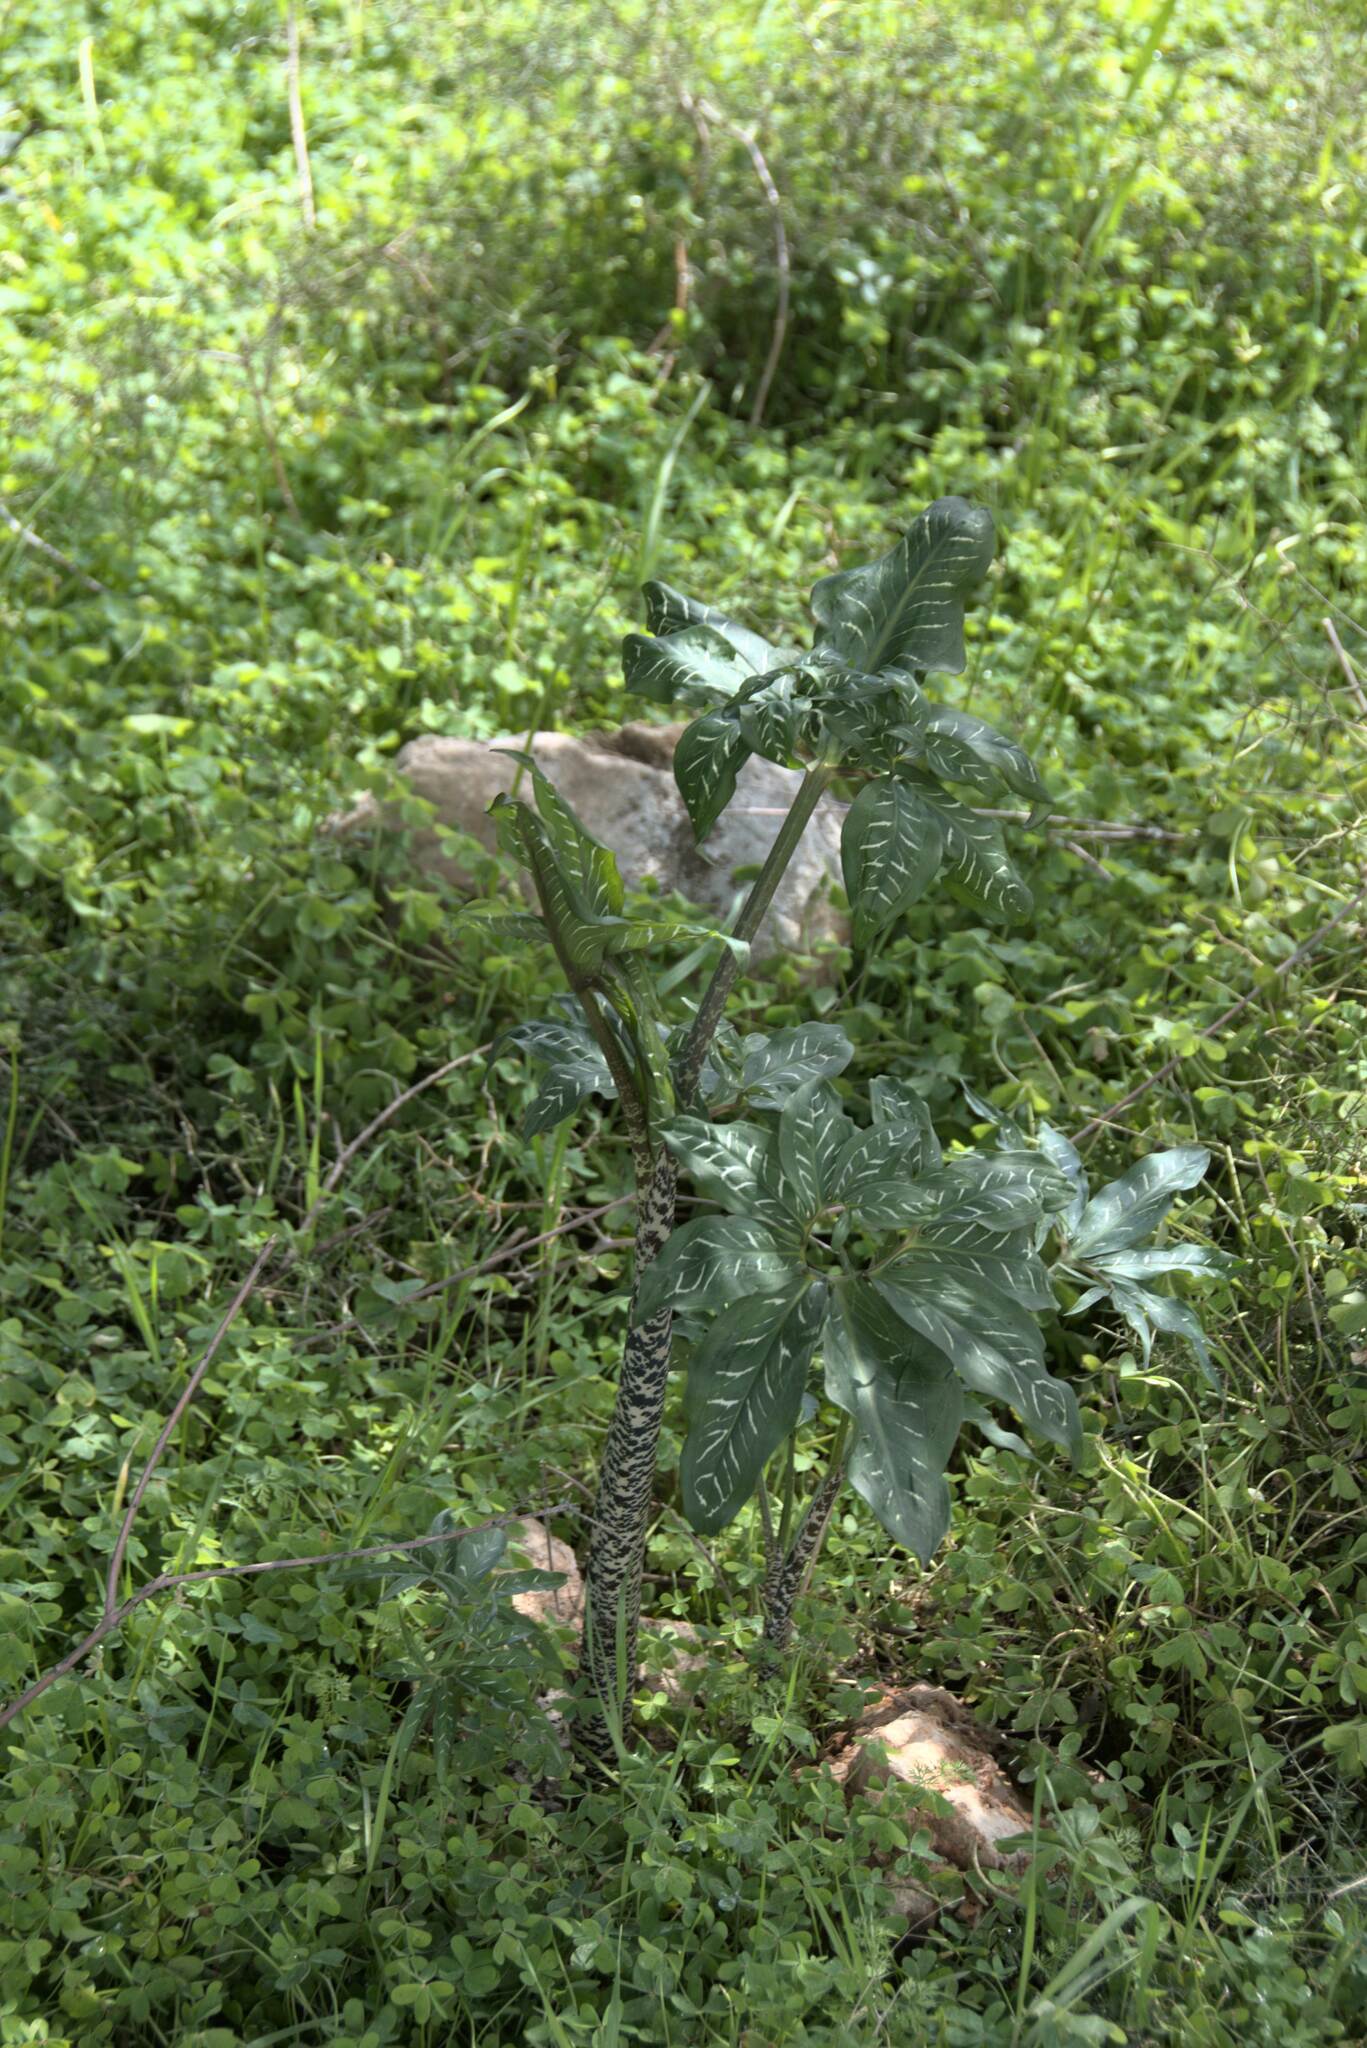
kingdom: Plantae
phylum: Tracheophyta
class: Liliopsida
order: Alismatales
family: Araceae
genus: Dracunculus
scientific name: Dracunculus vulgaris
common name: Dragon arum
